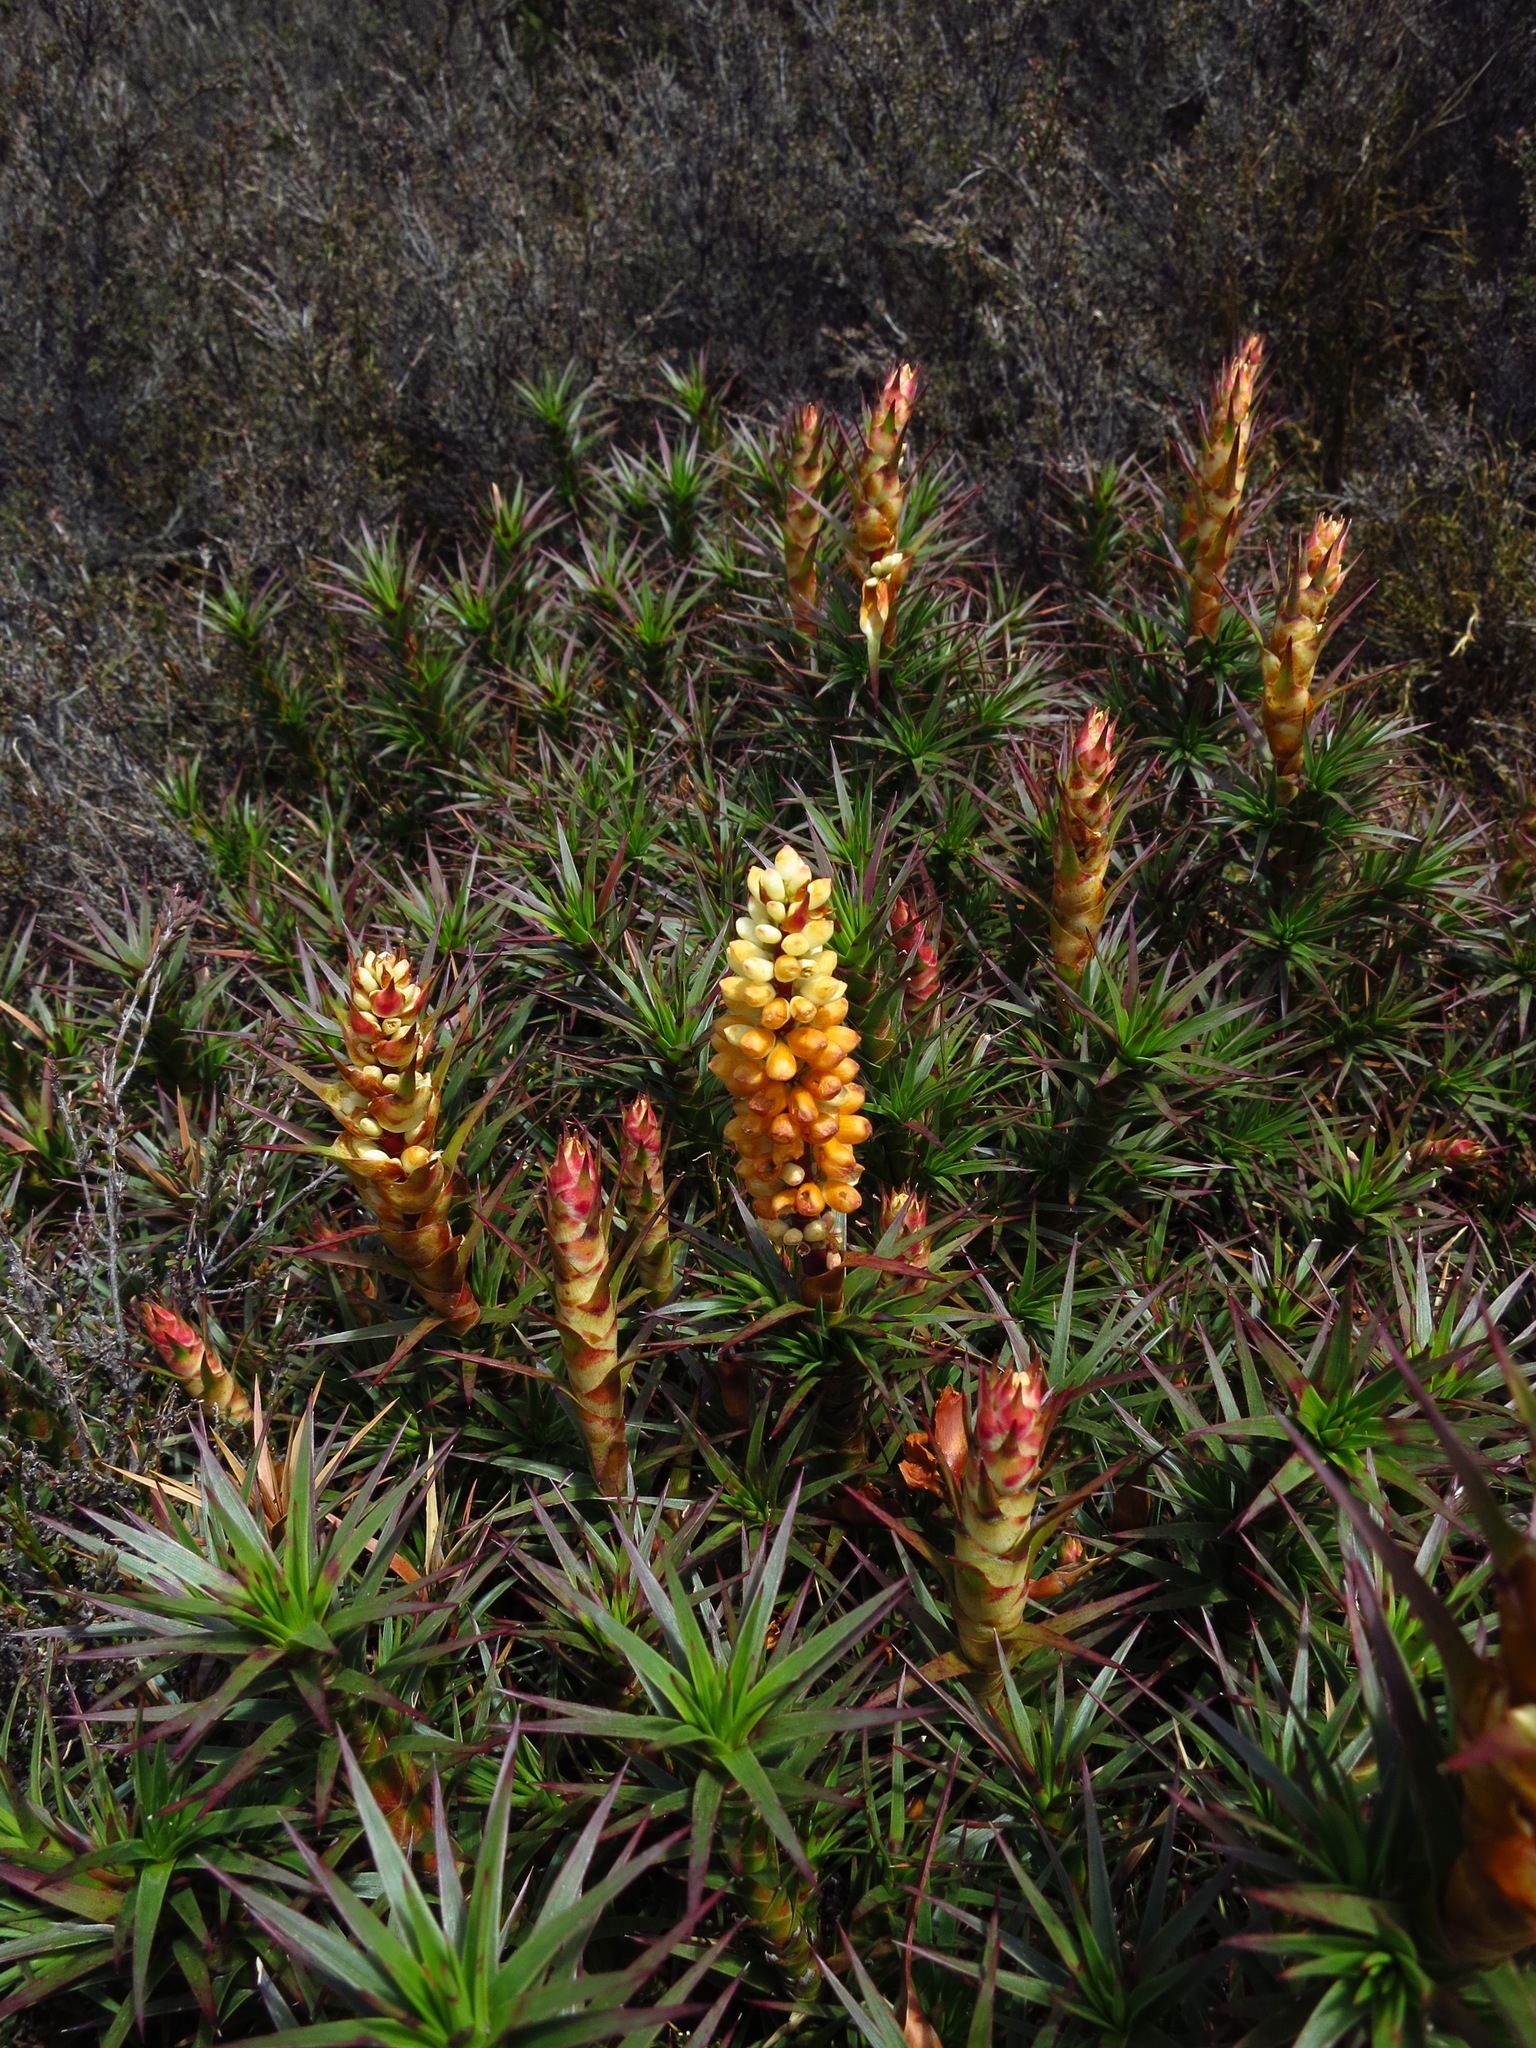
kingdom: Plantae
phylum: Tracheophyta
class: Magnoliopsida
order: Ericales
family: Ericaceae
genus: Dracophyllum
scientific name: Dracophyllum persistentifolium
